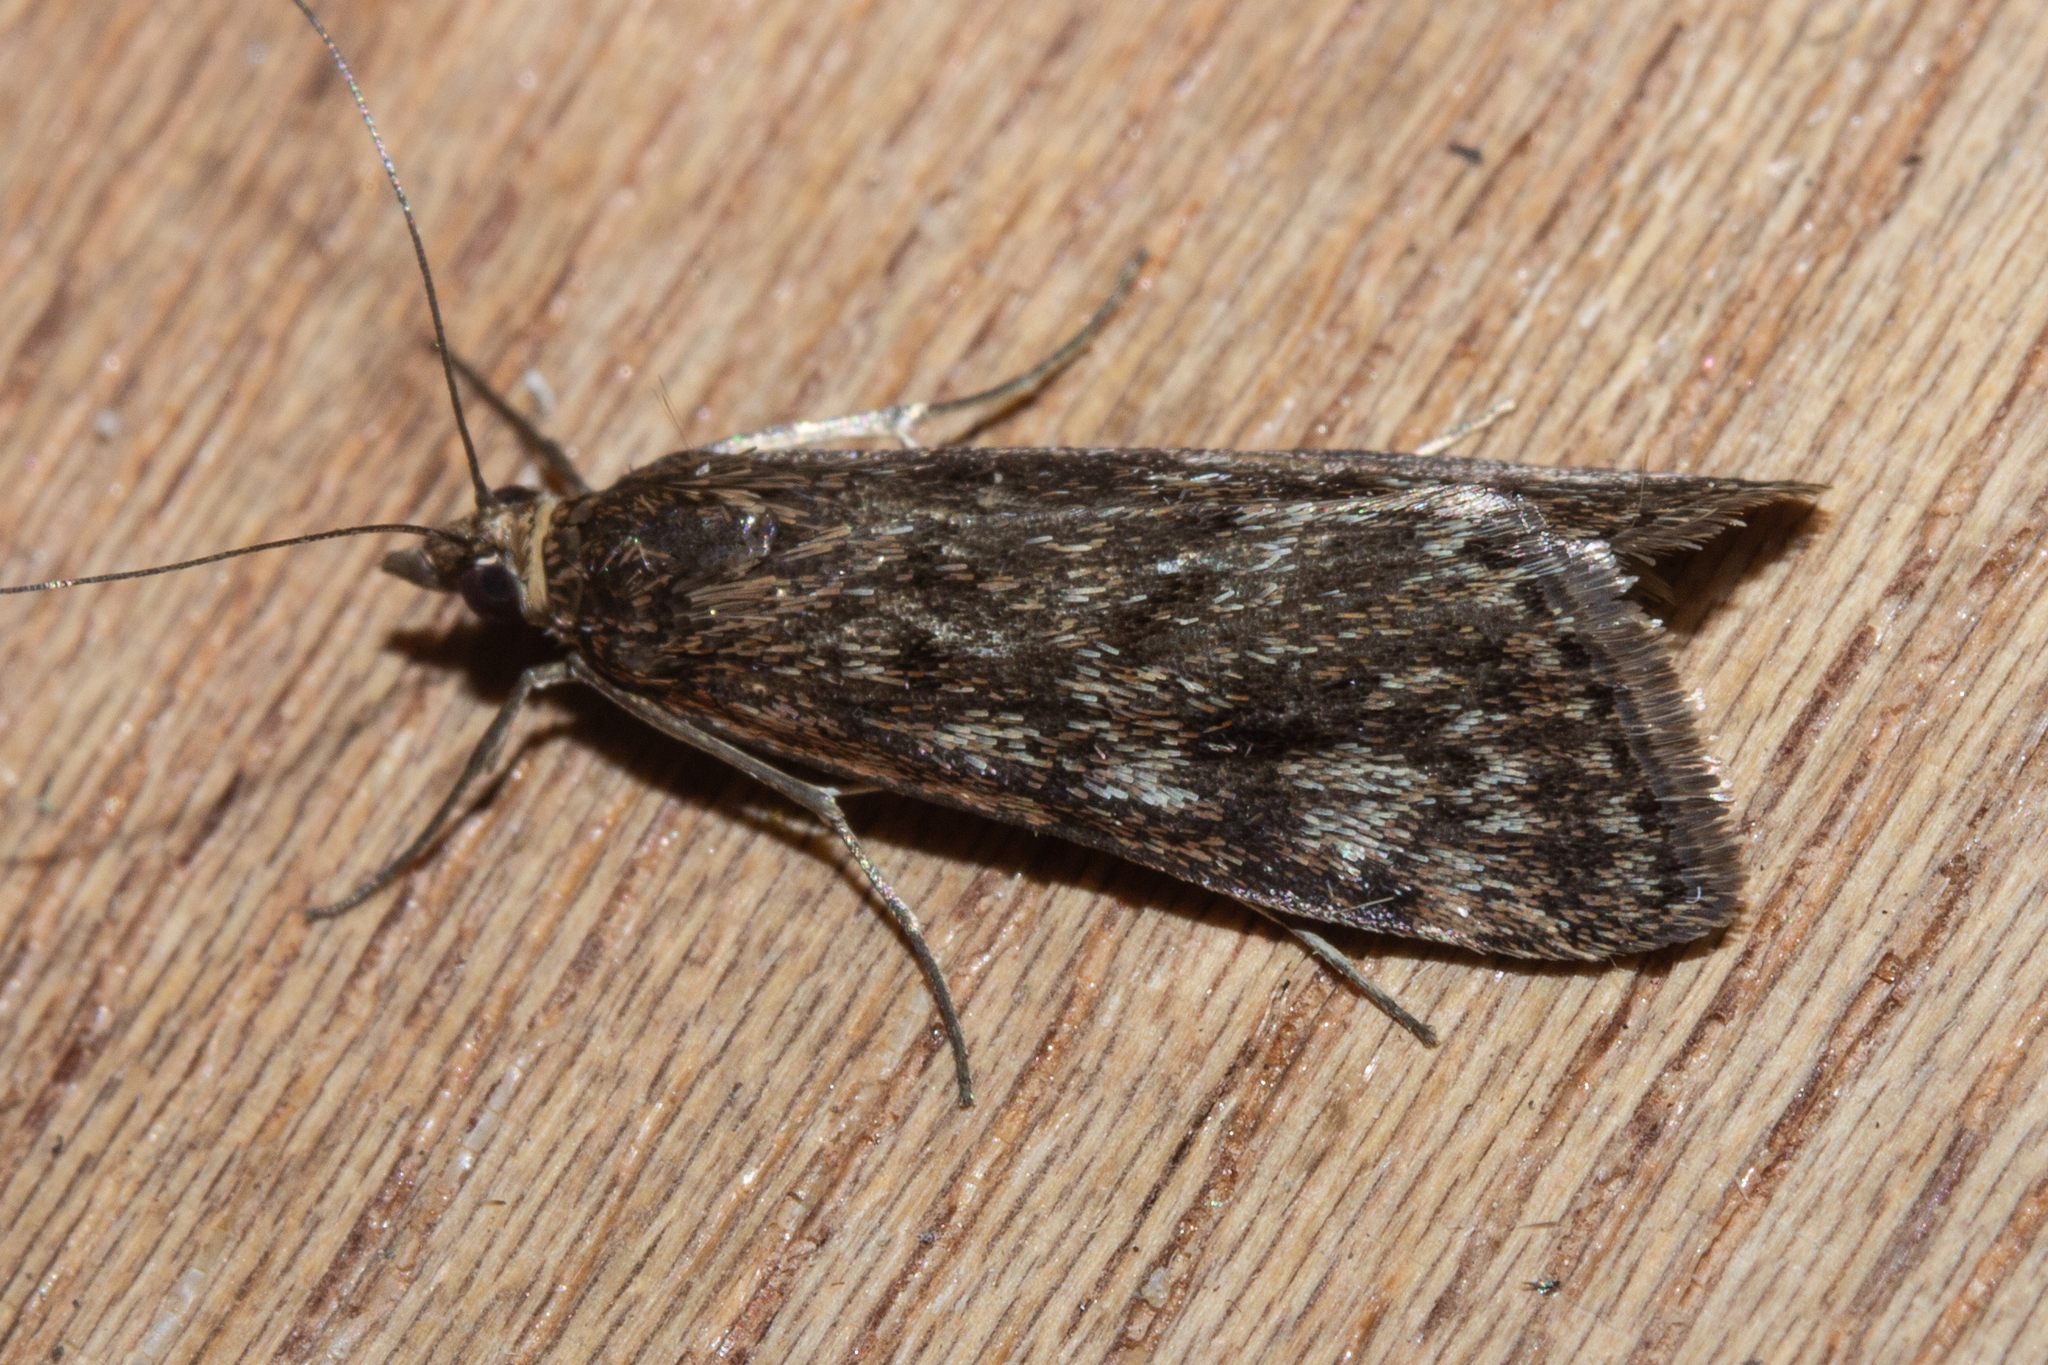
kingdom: Animalia
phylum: Arthropoda
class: Insecta
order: Lepidoptera
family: Crambidae
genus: Achyra
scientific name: Achyra affinitalis
